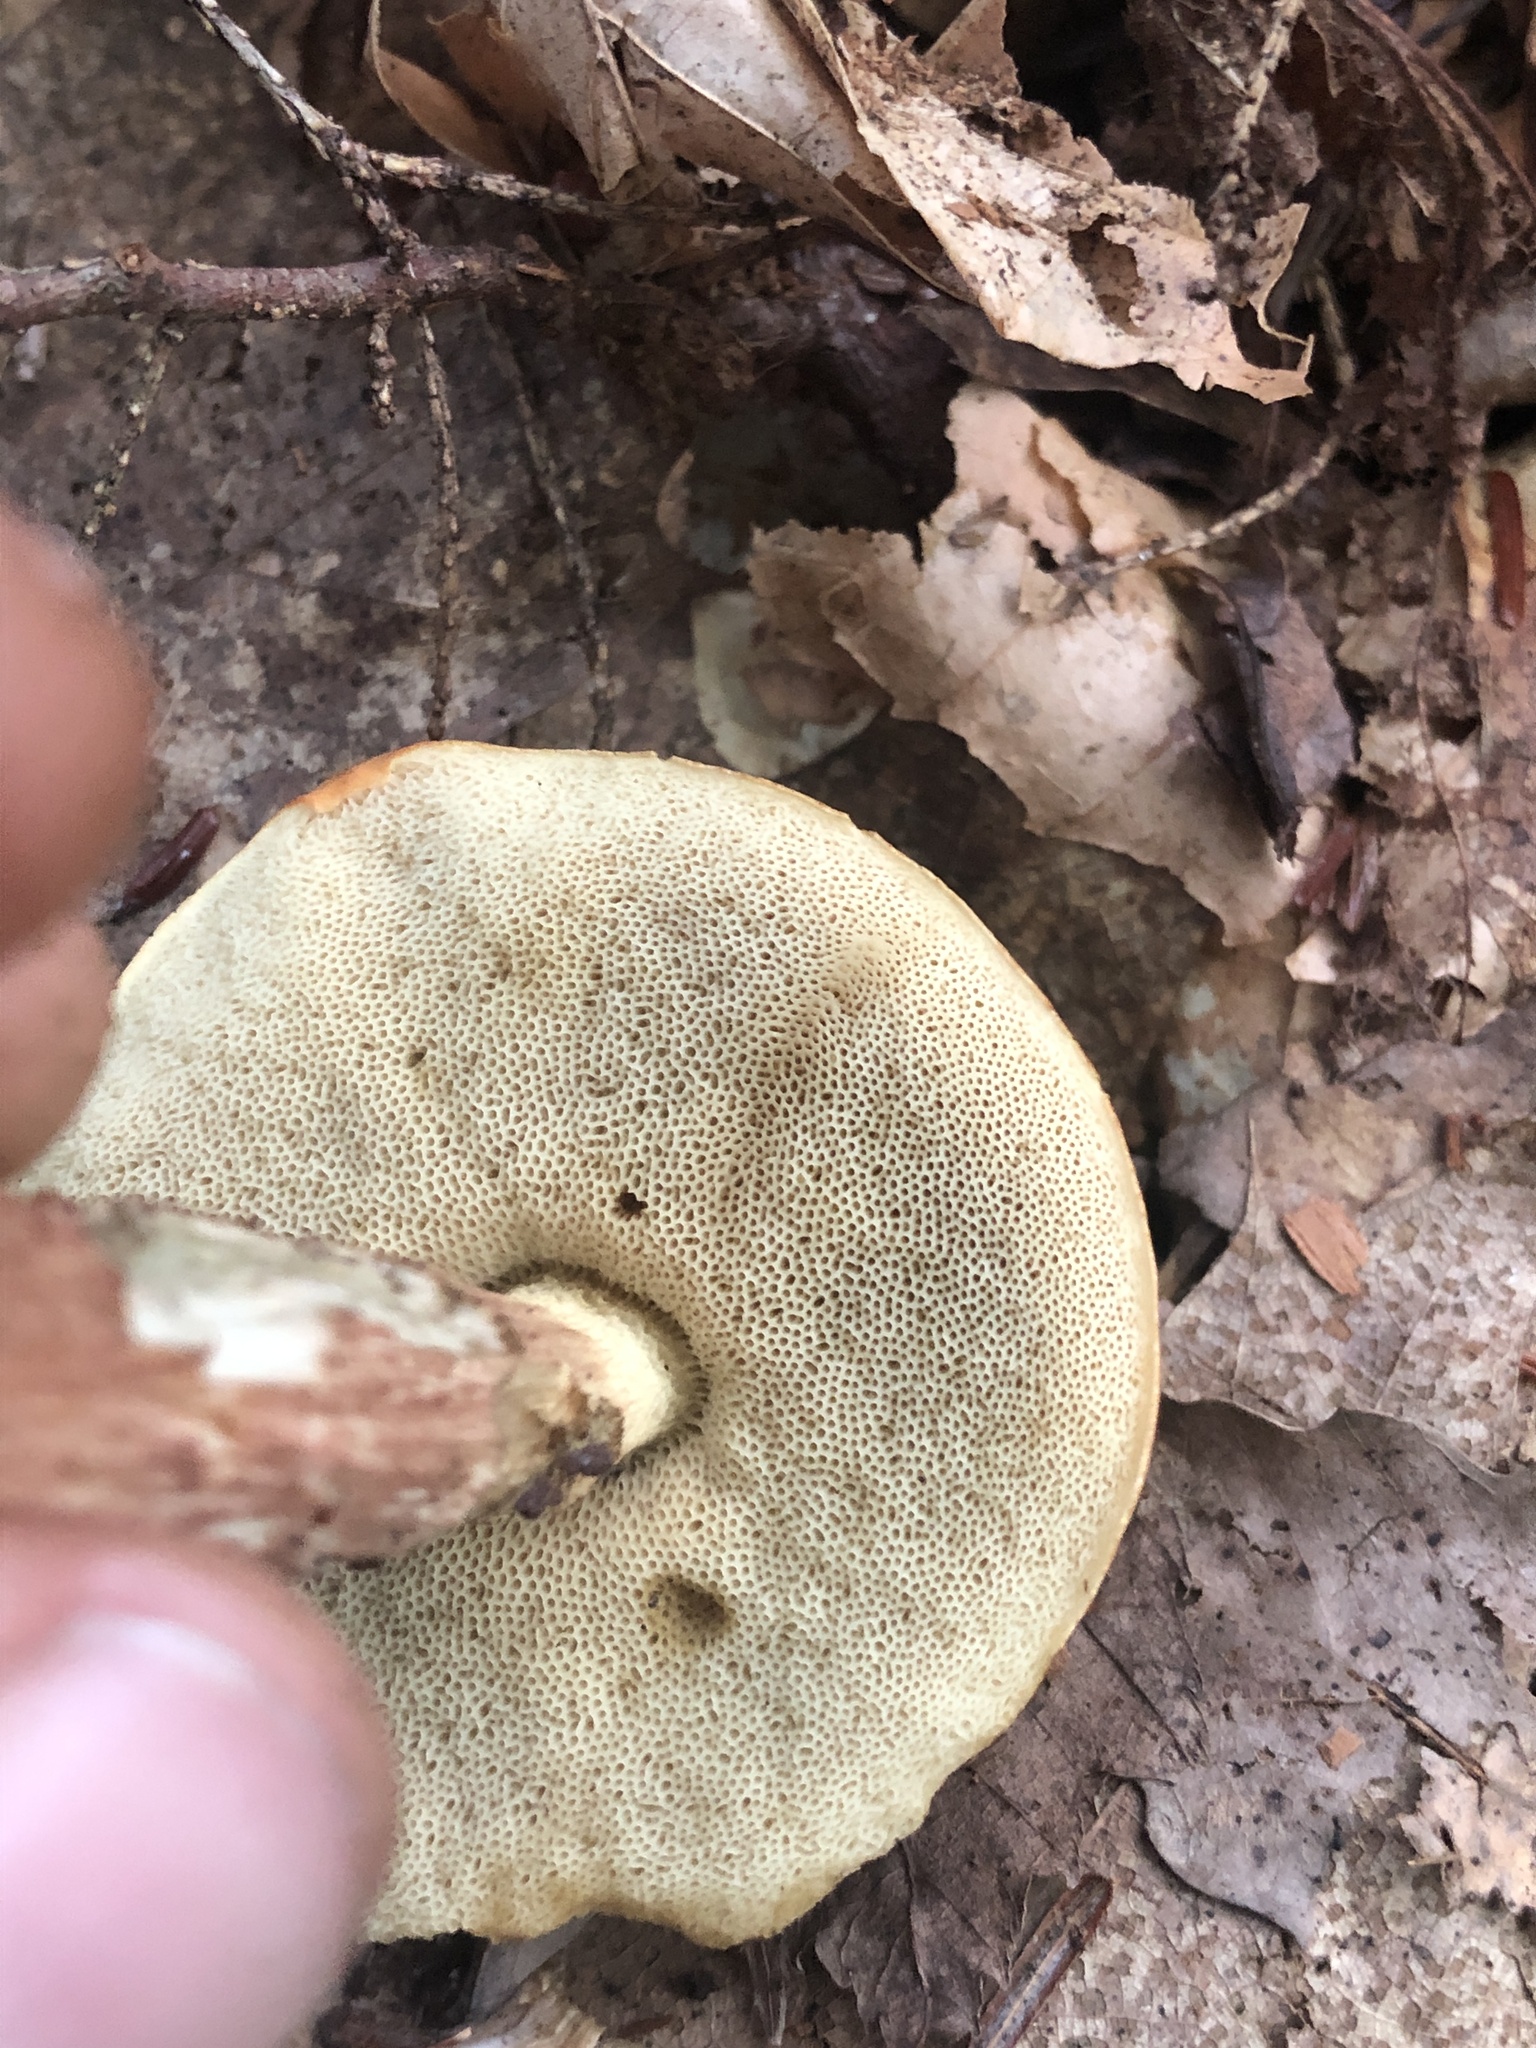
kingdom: Fungi
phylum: Basidiomycota
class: Agaricomycetes
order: Boletales
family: Boletaceae
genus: Leccinum
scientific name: Leccinum longicurvipes
